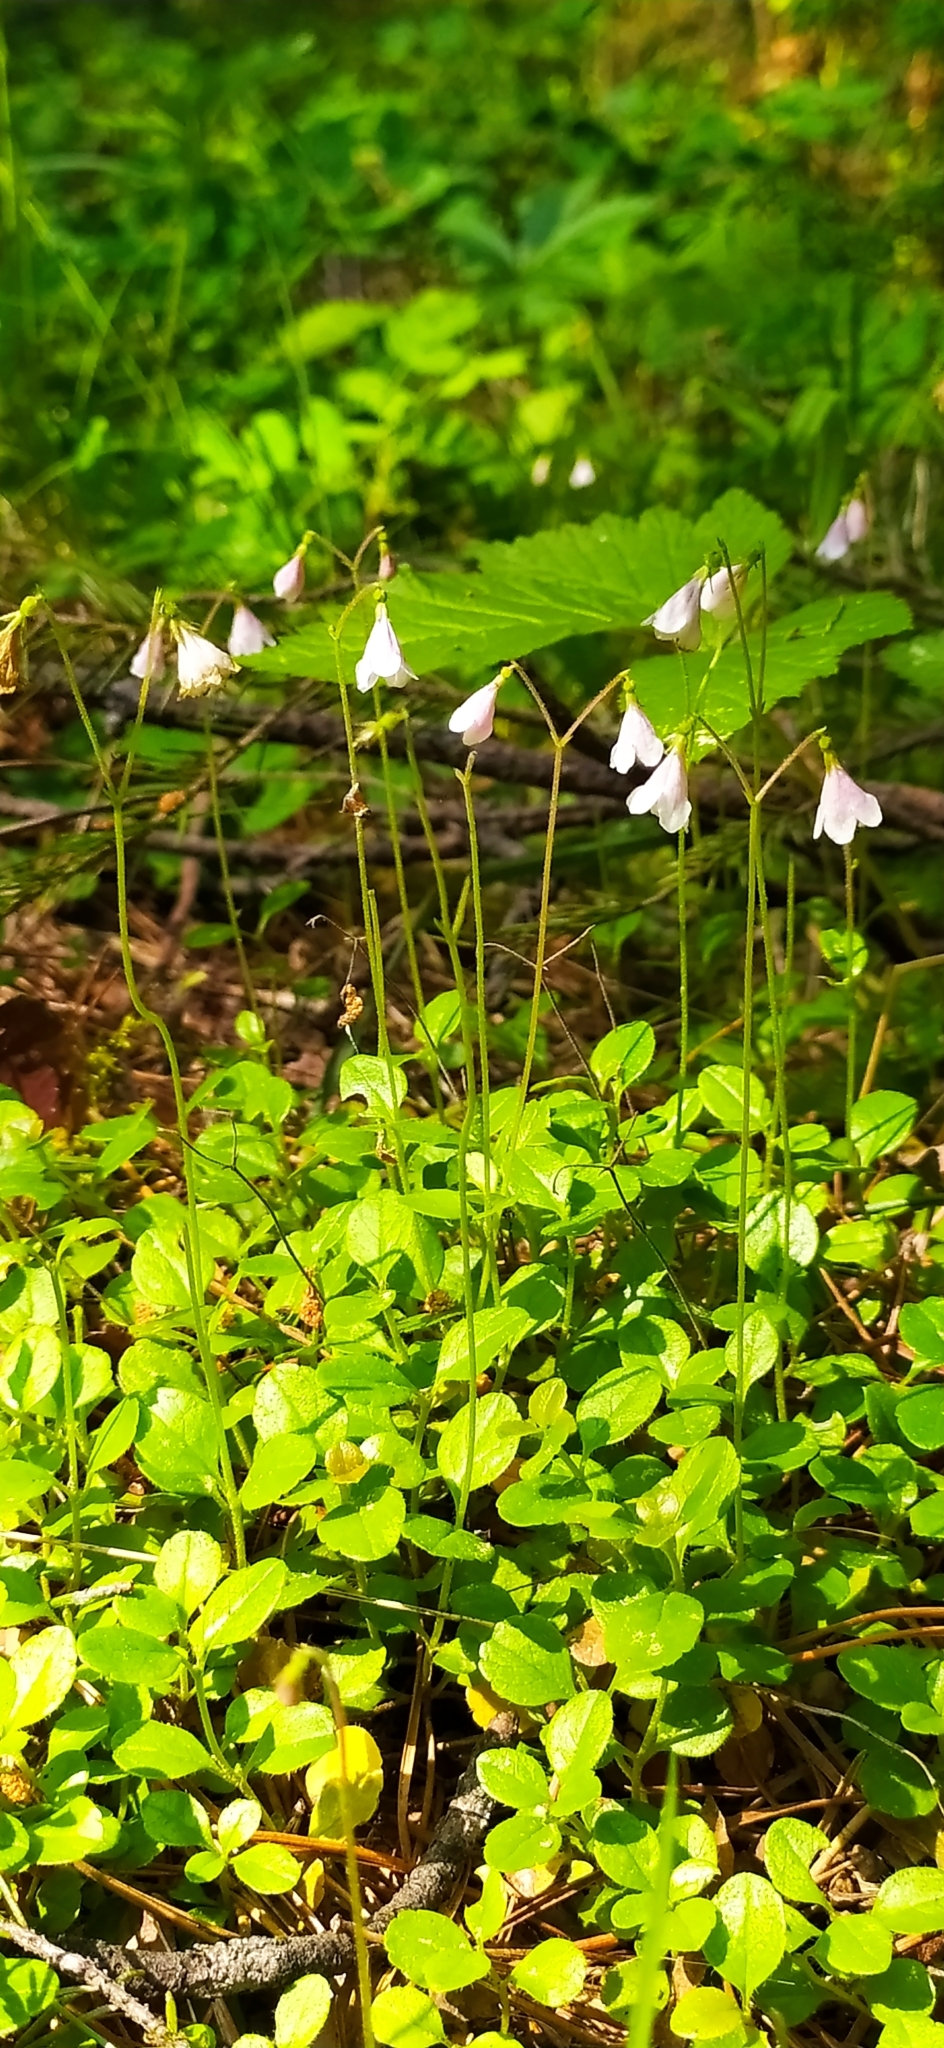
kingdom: Plantae
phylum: Tracheophyta
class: Magnoliopsida
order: Dipsacales
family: Caprifoliaceae
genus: Linnaea
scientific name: Linnaea borealis
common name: Twinflower
